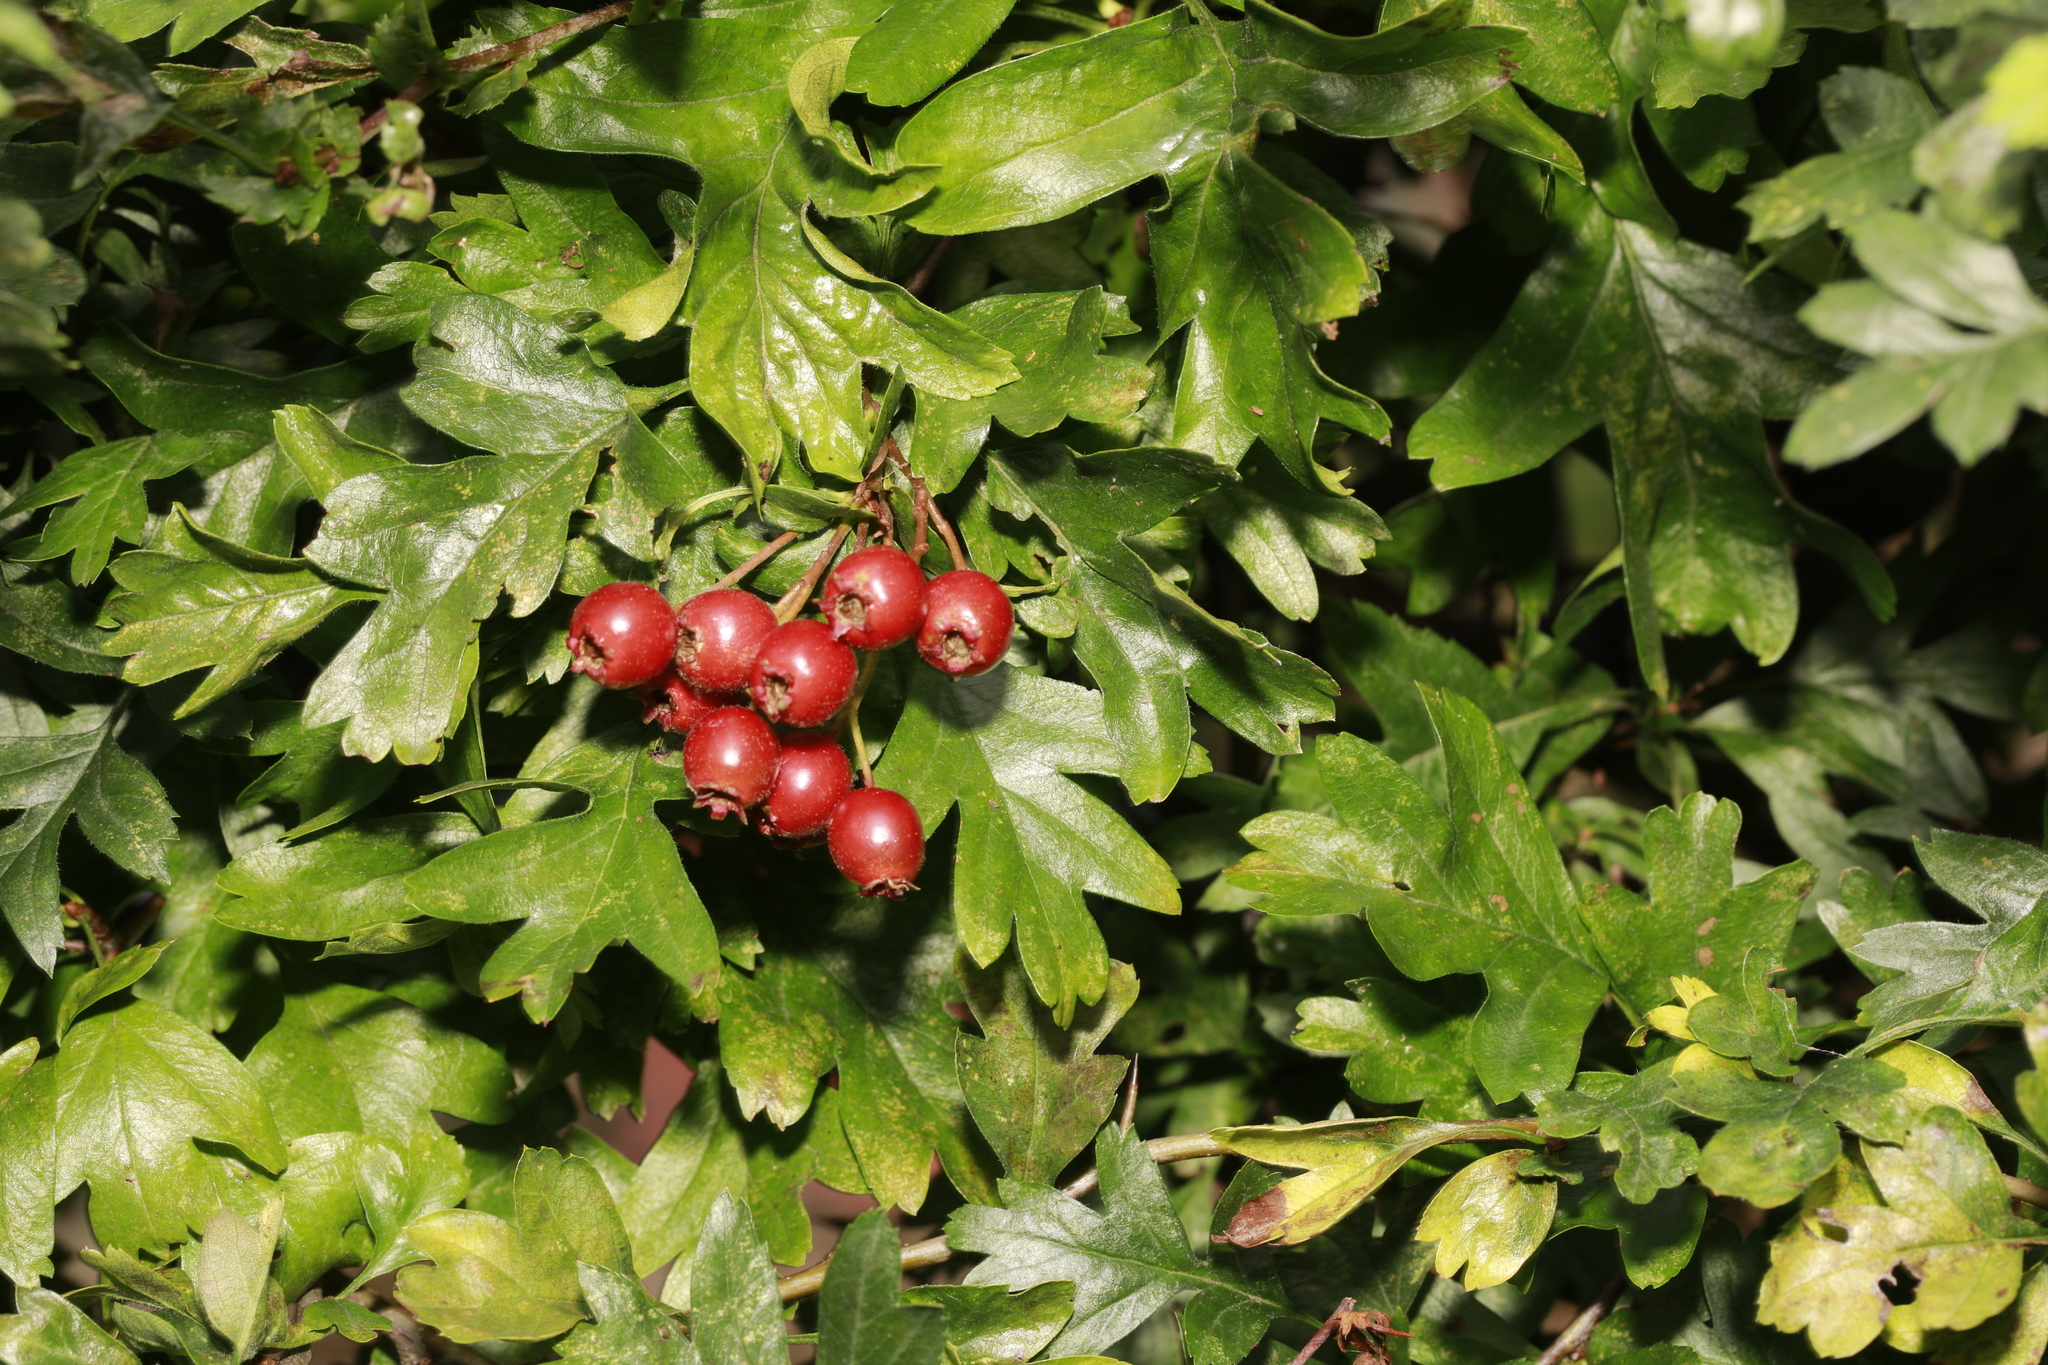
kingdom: Plantae
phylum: Tracheophyta
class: Magnoliopsida
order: Rosales
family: Rosaceae
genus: Crataegus
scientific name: Crataegus monogyna
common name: Hawthorn
